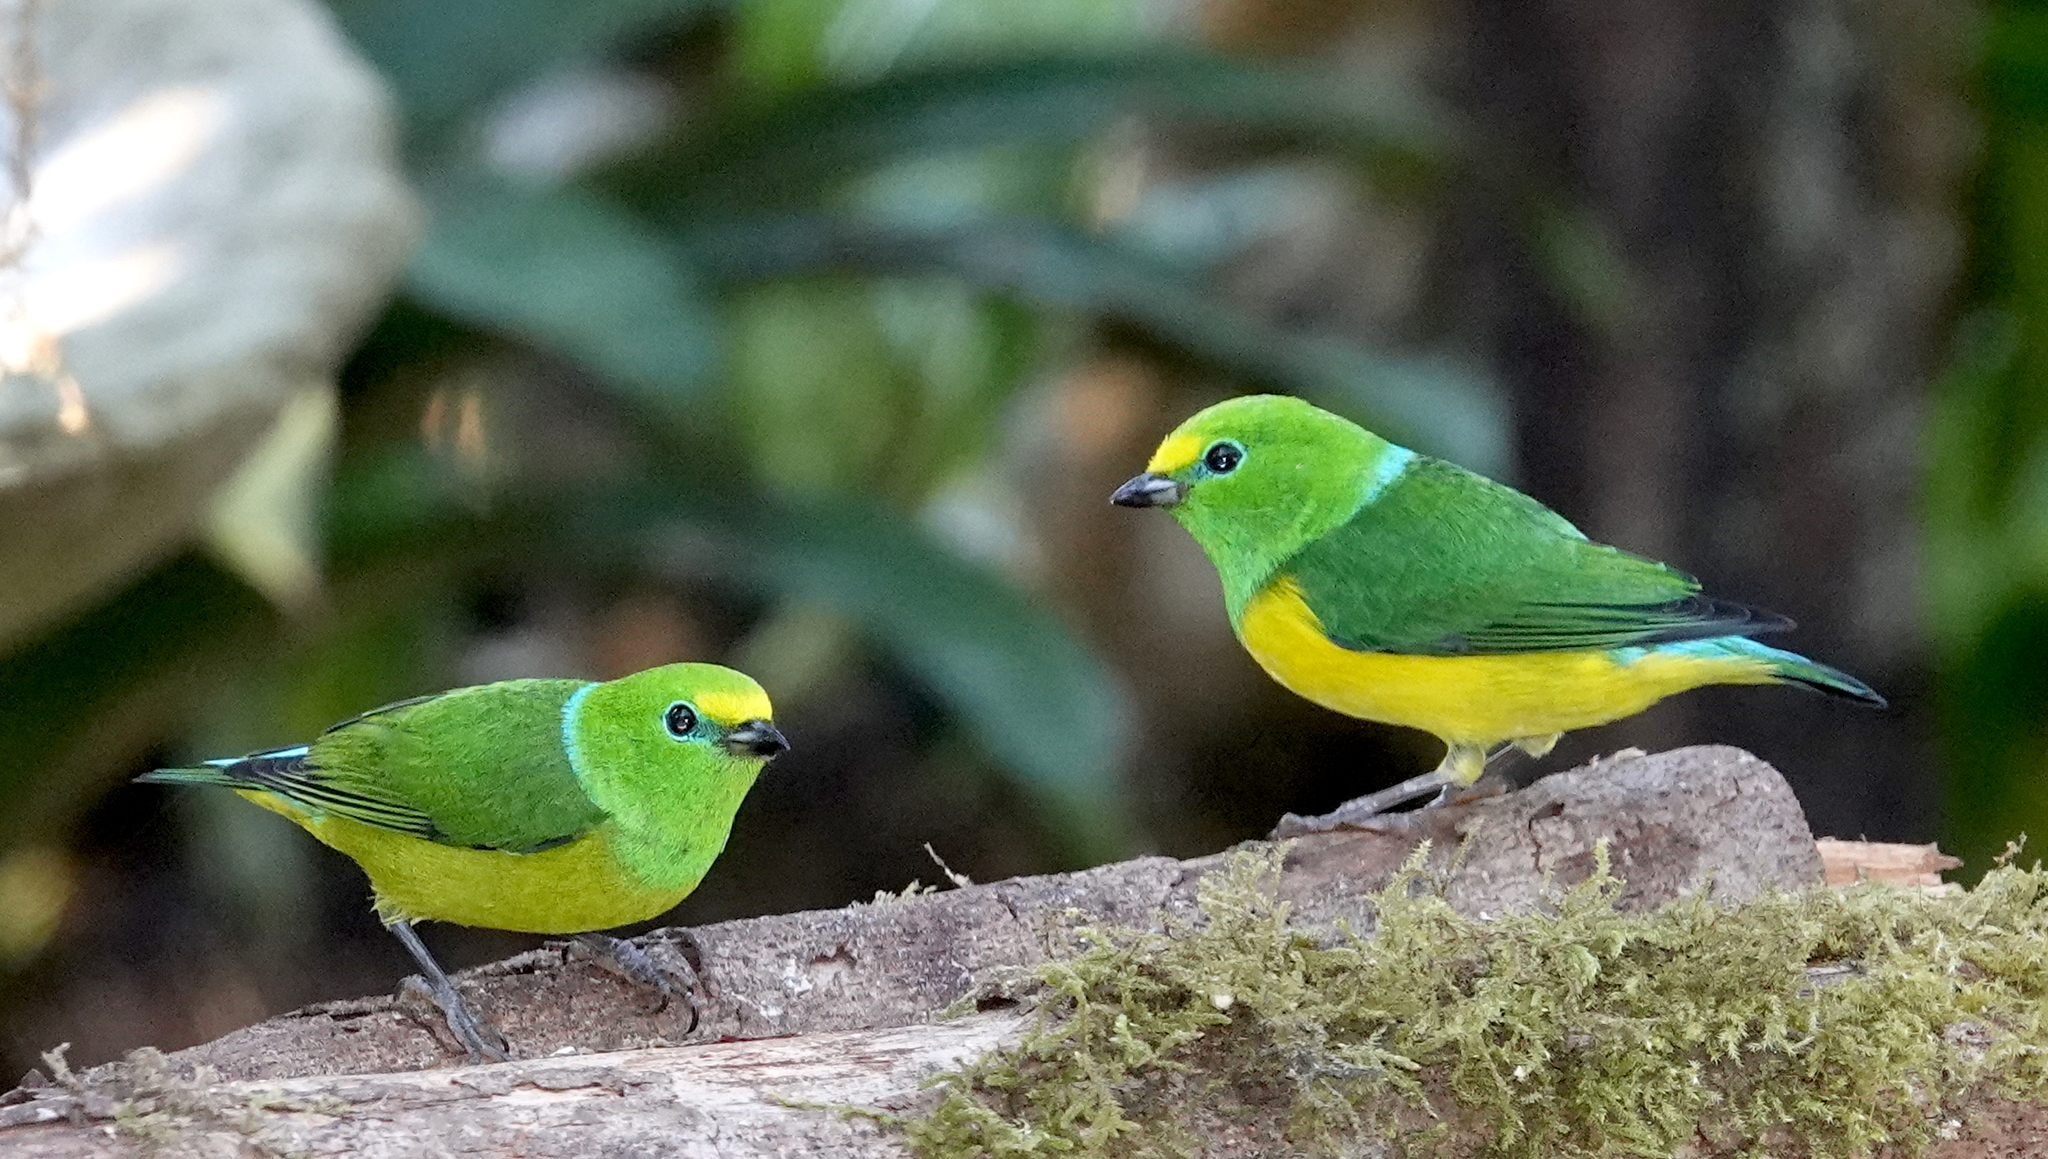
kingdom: Animalia
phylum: Chordata
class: Aves
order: Passeriformes
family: Fringillidae
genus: Chlorophonia
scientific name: Chlorophonia cyanea
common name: Blue-naped chlorophonia
